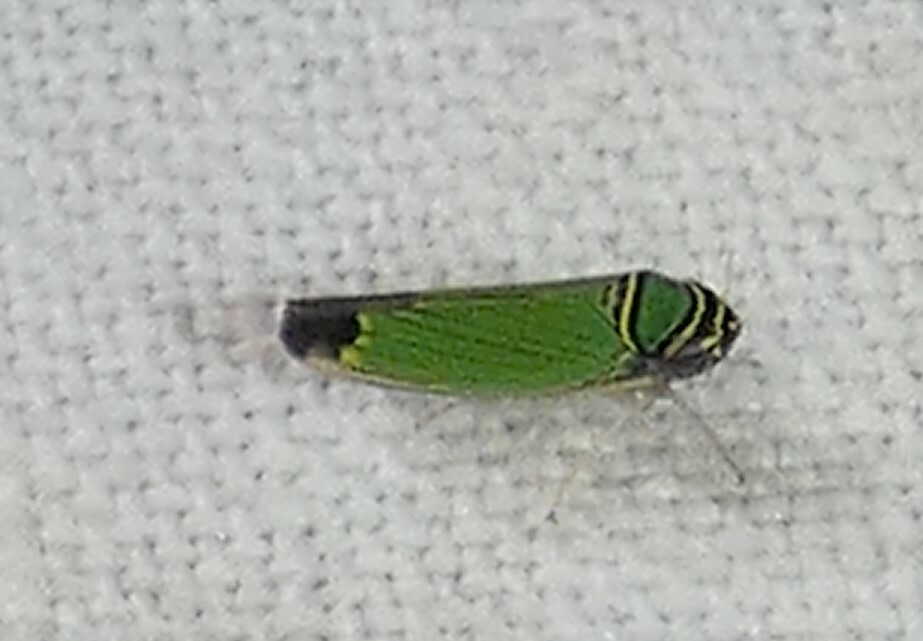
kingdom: Animalia
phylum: Arthropoda
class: Insecta
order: Hemiptera
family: Cicadellidae
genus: Tylozygus
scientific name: Tylozygus geometricus
